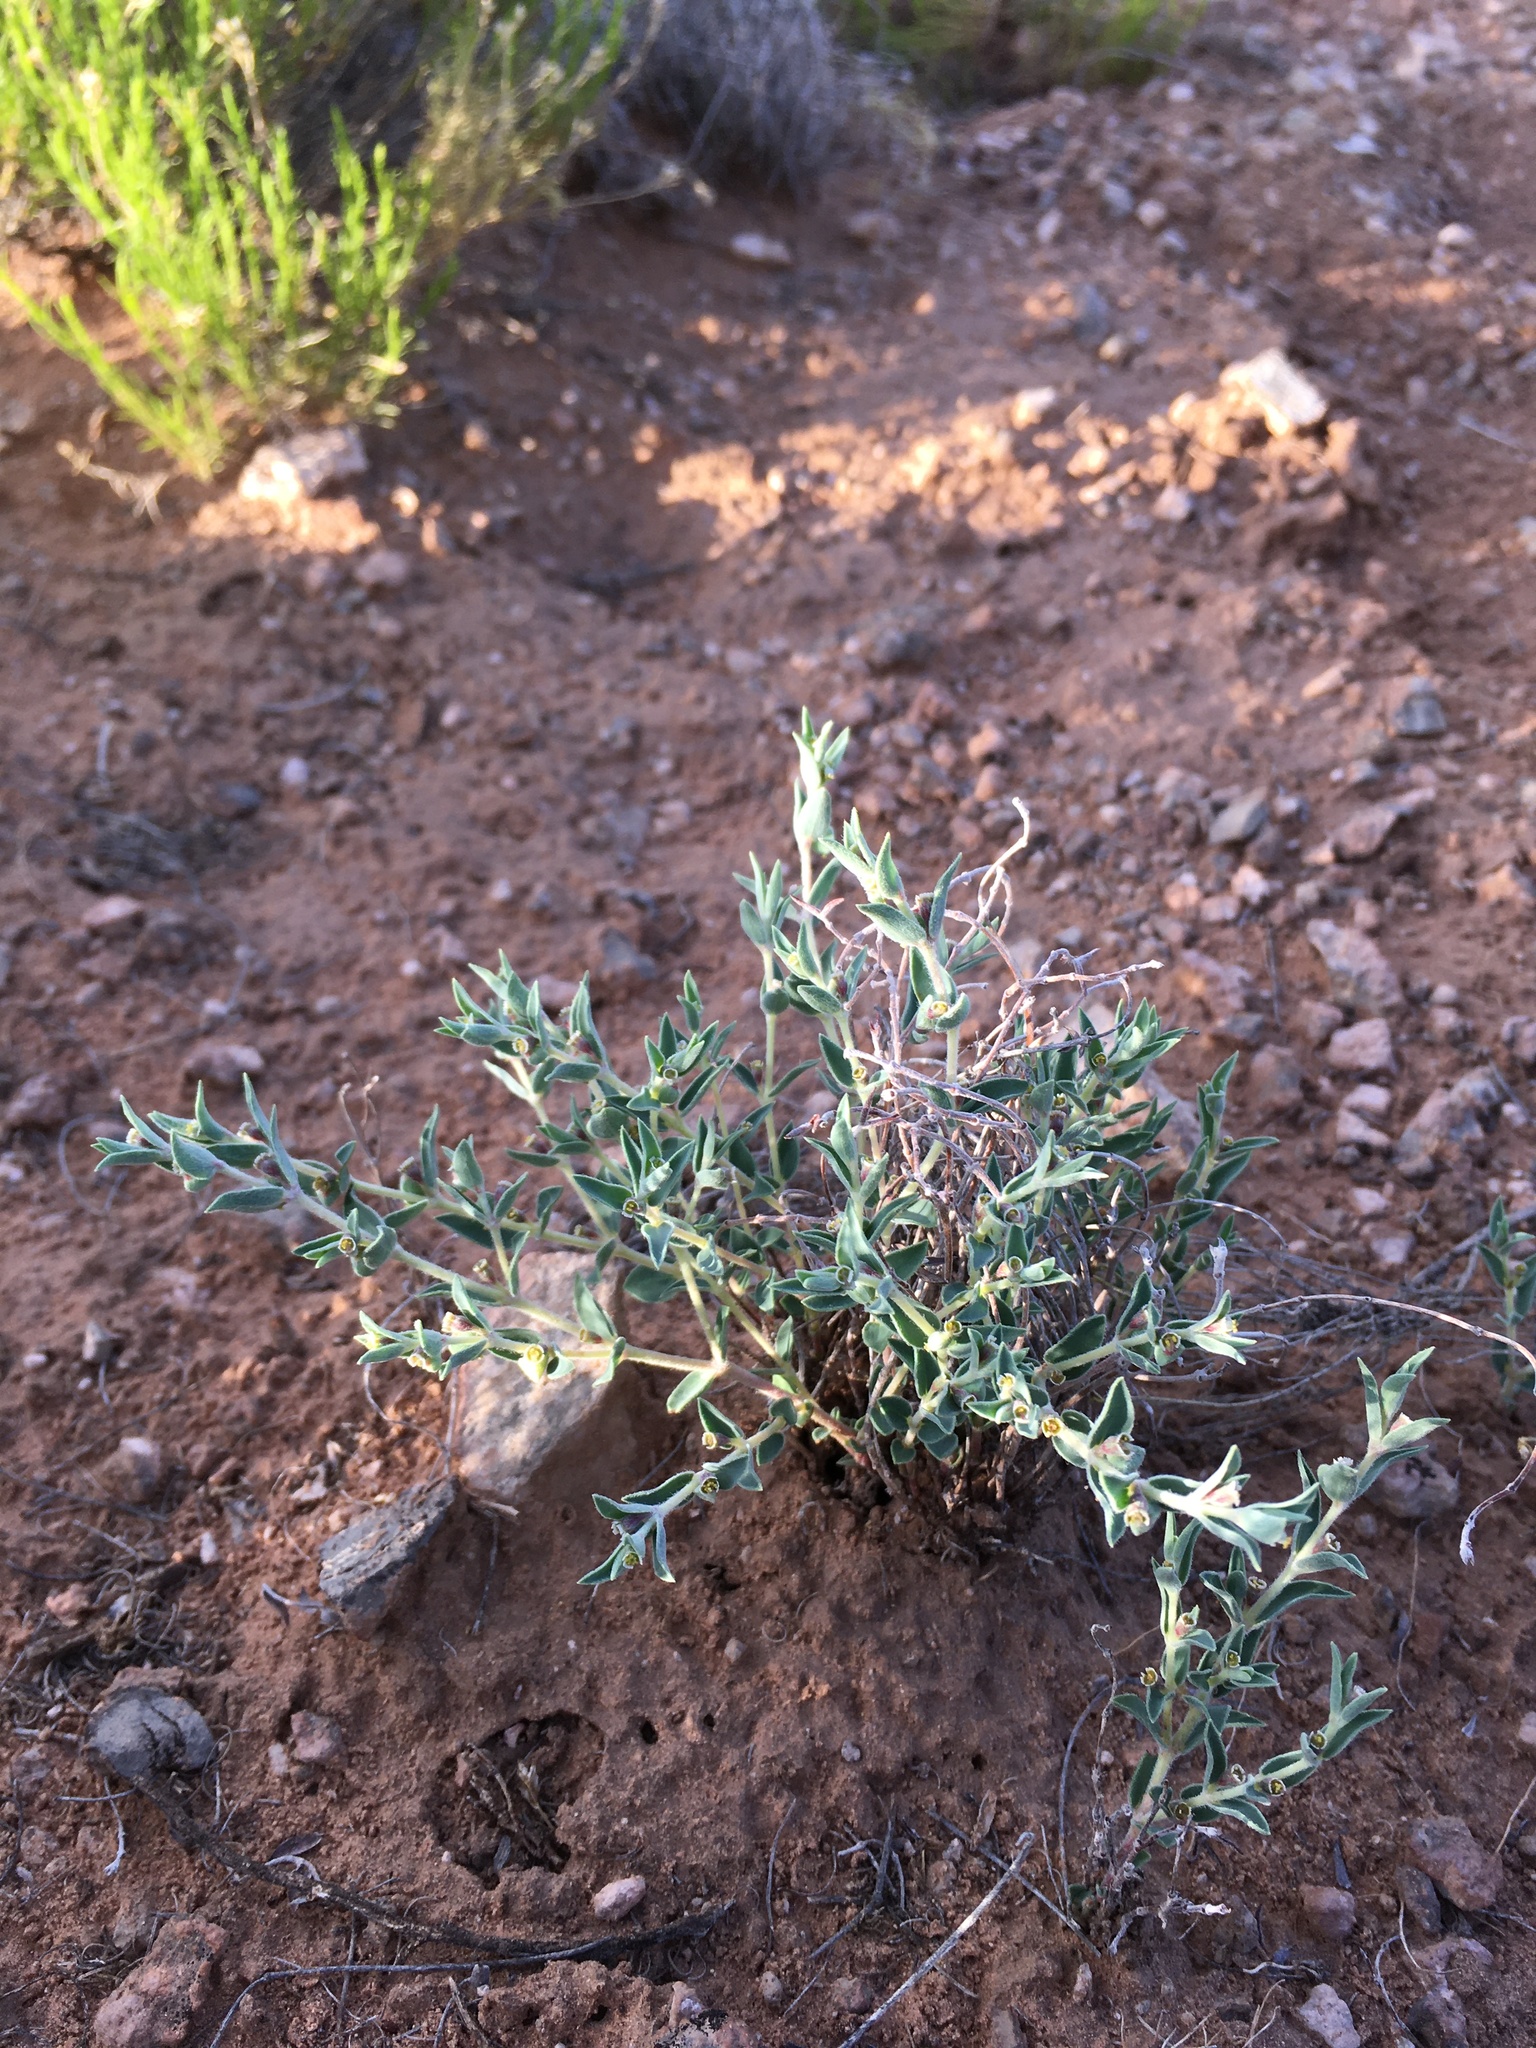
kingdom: Plantae
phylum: Tracheophyta
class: Magnoliopsida
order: Malpighiales
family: Euphorbiaceae
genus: Euphorbia
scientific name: Euphorbia acuta
